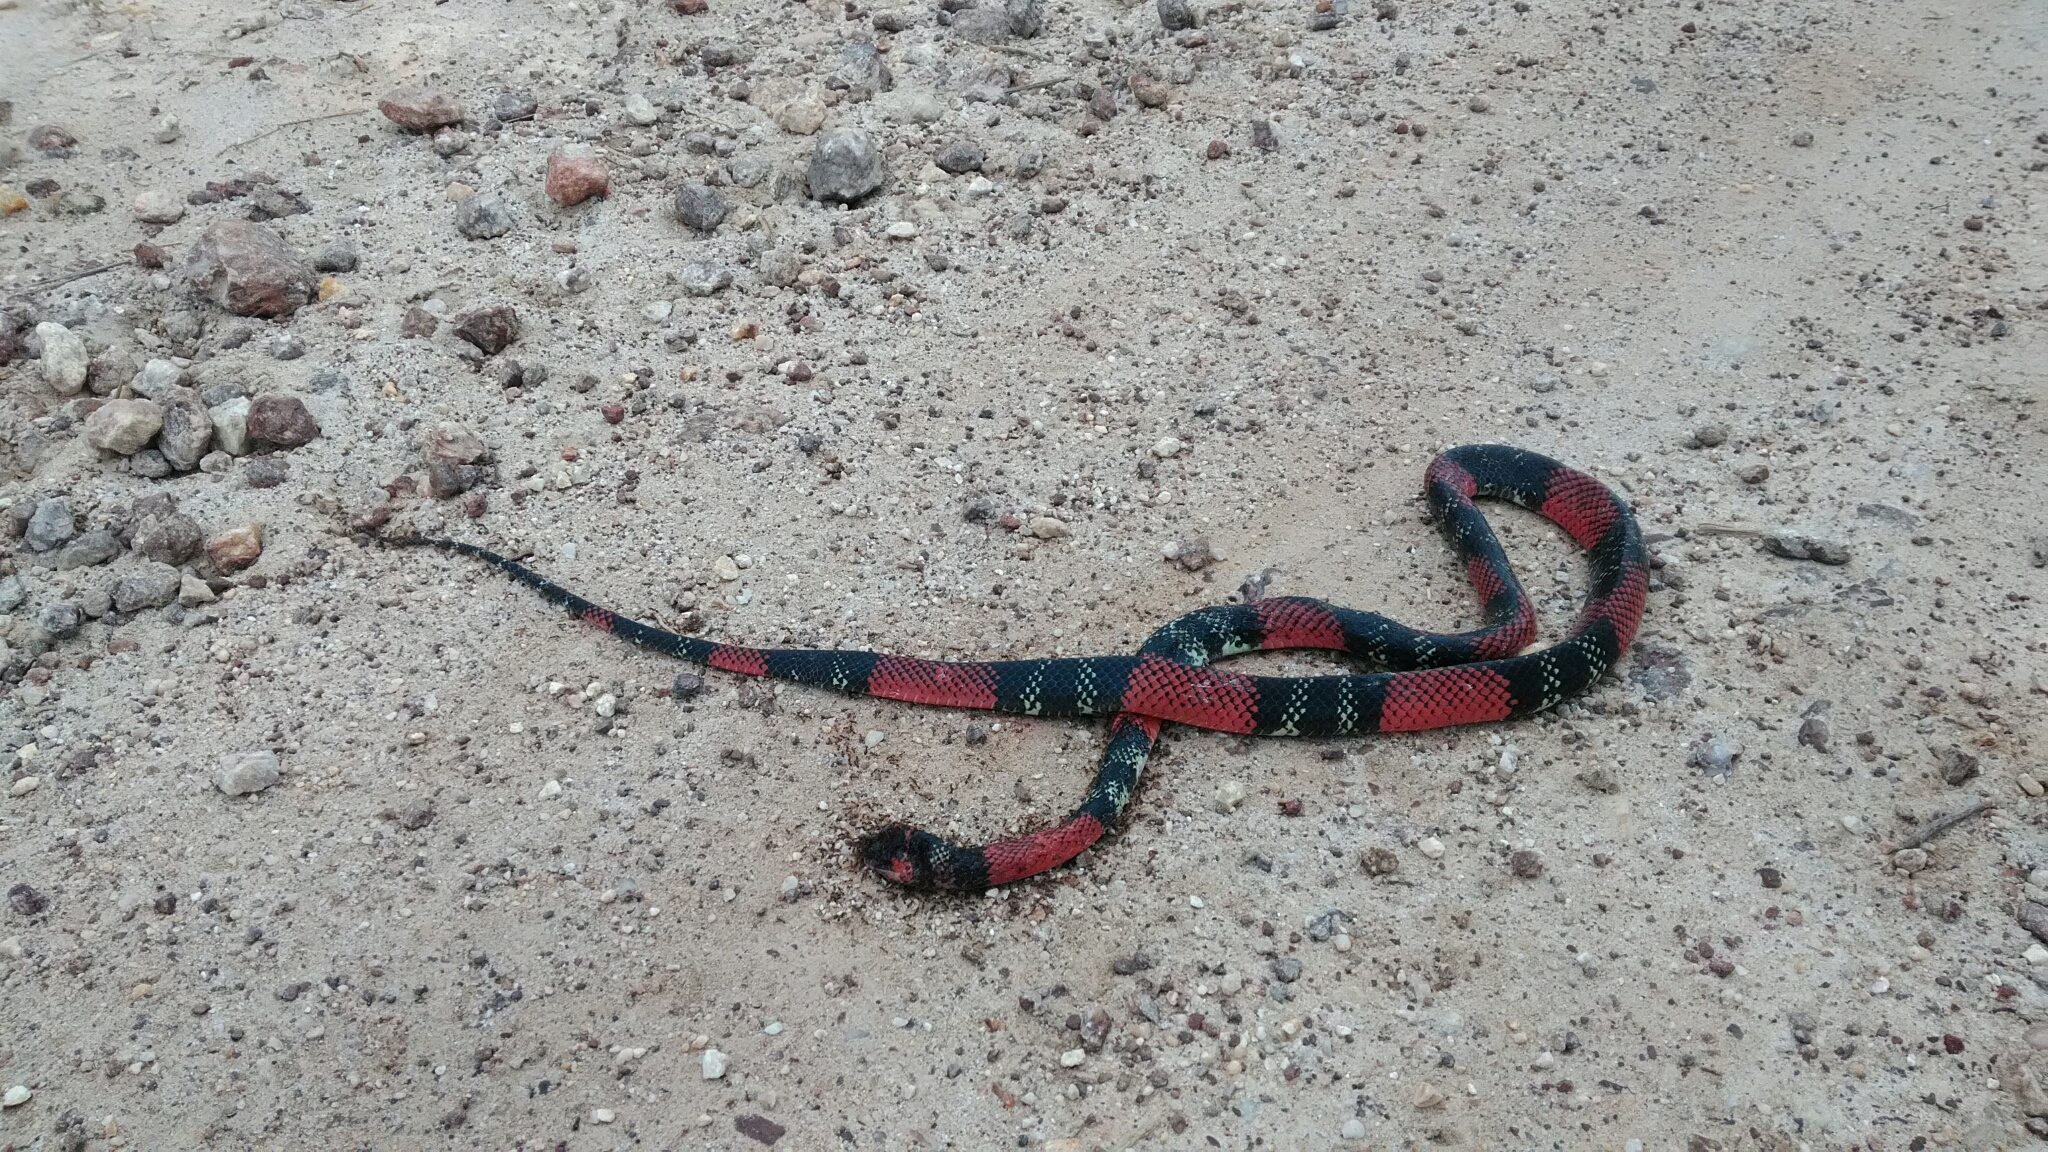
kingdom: Animalia
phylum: Chordata
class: Squamata
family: Colubridae
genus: Oxyrhopus
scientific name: Oxyrhopus guibei
